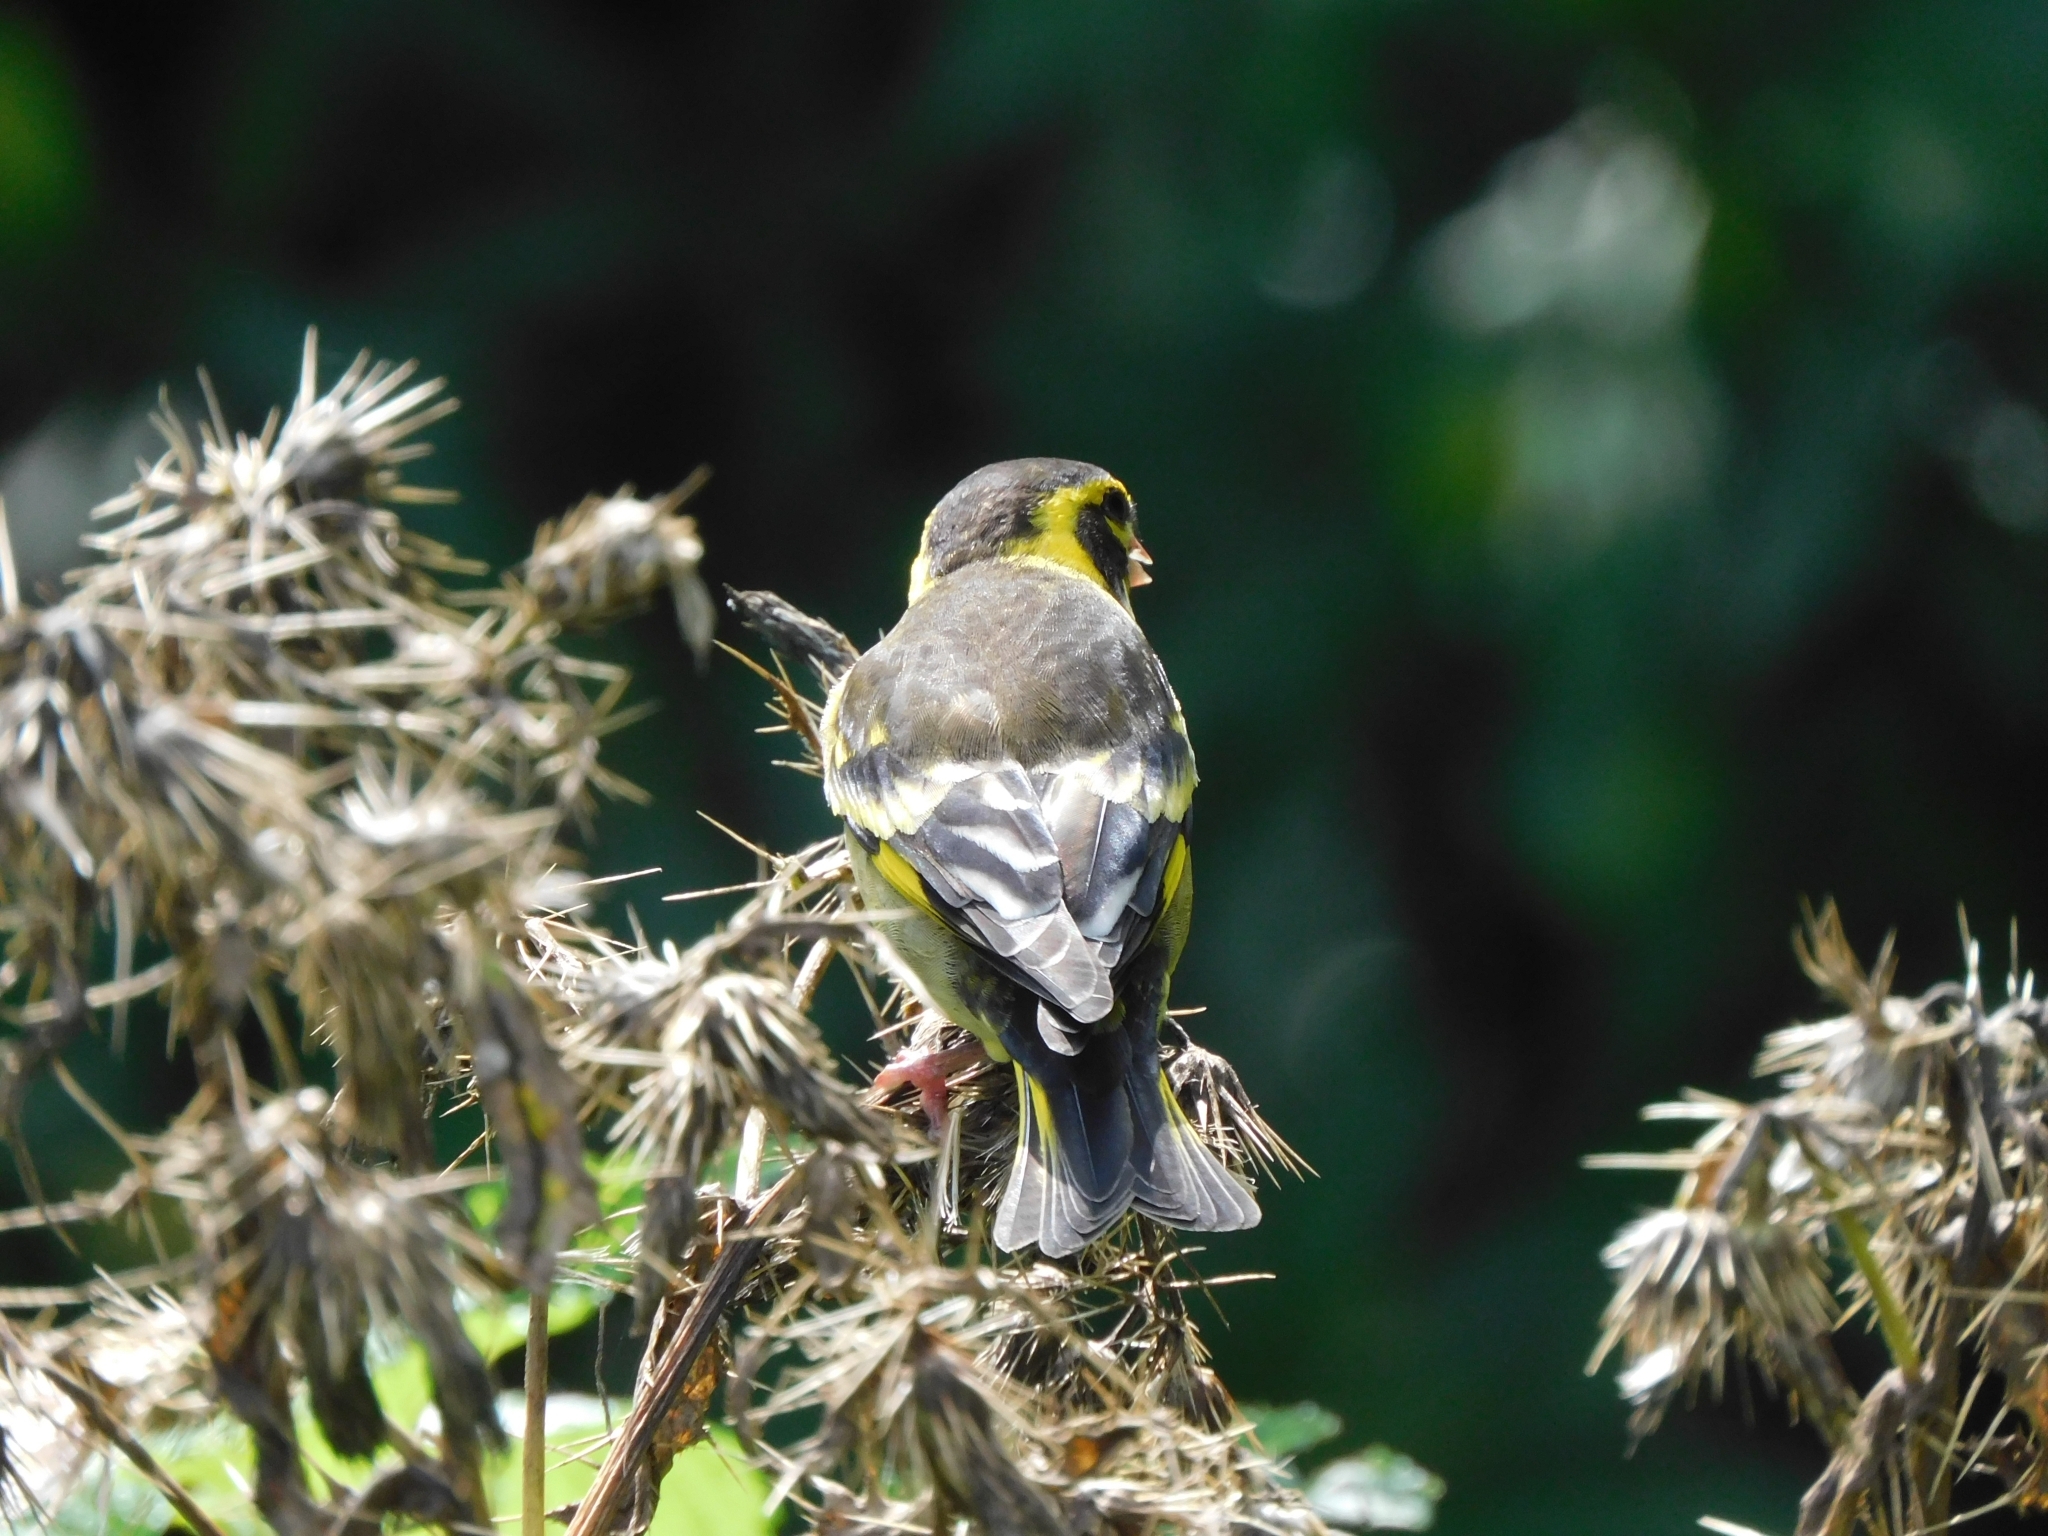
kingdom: Animalia
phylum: Chordata
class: Aves
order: Passeriformes
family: Fringillidae
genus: Chloris
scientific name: Chloris spinoides
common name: Yellow-breasted greenfinch
